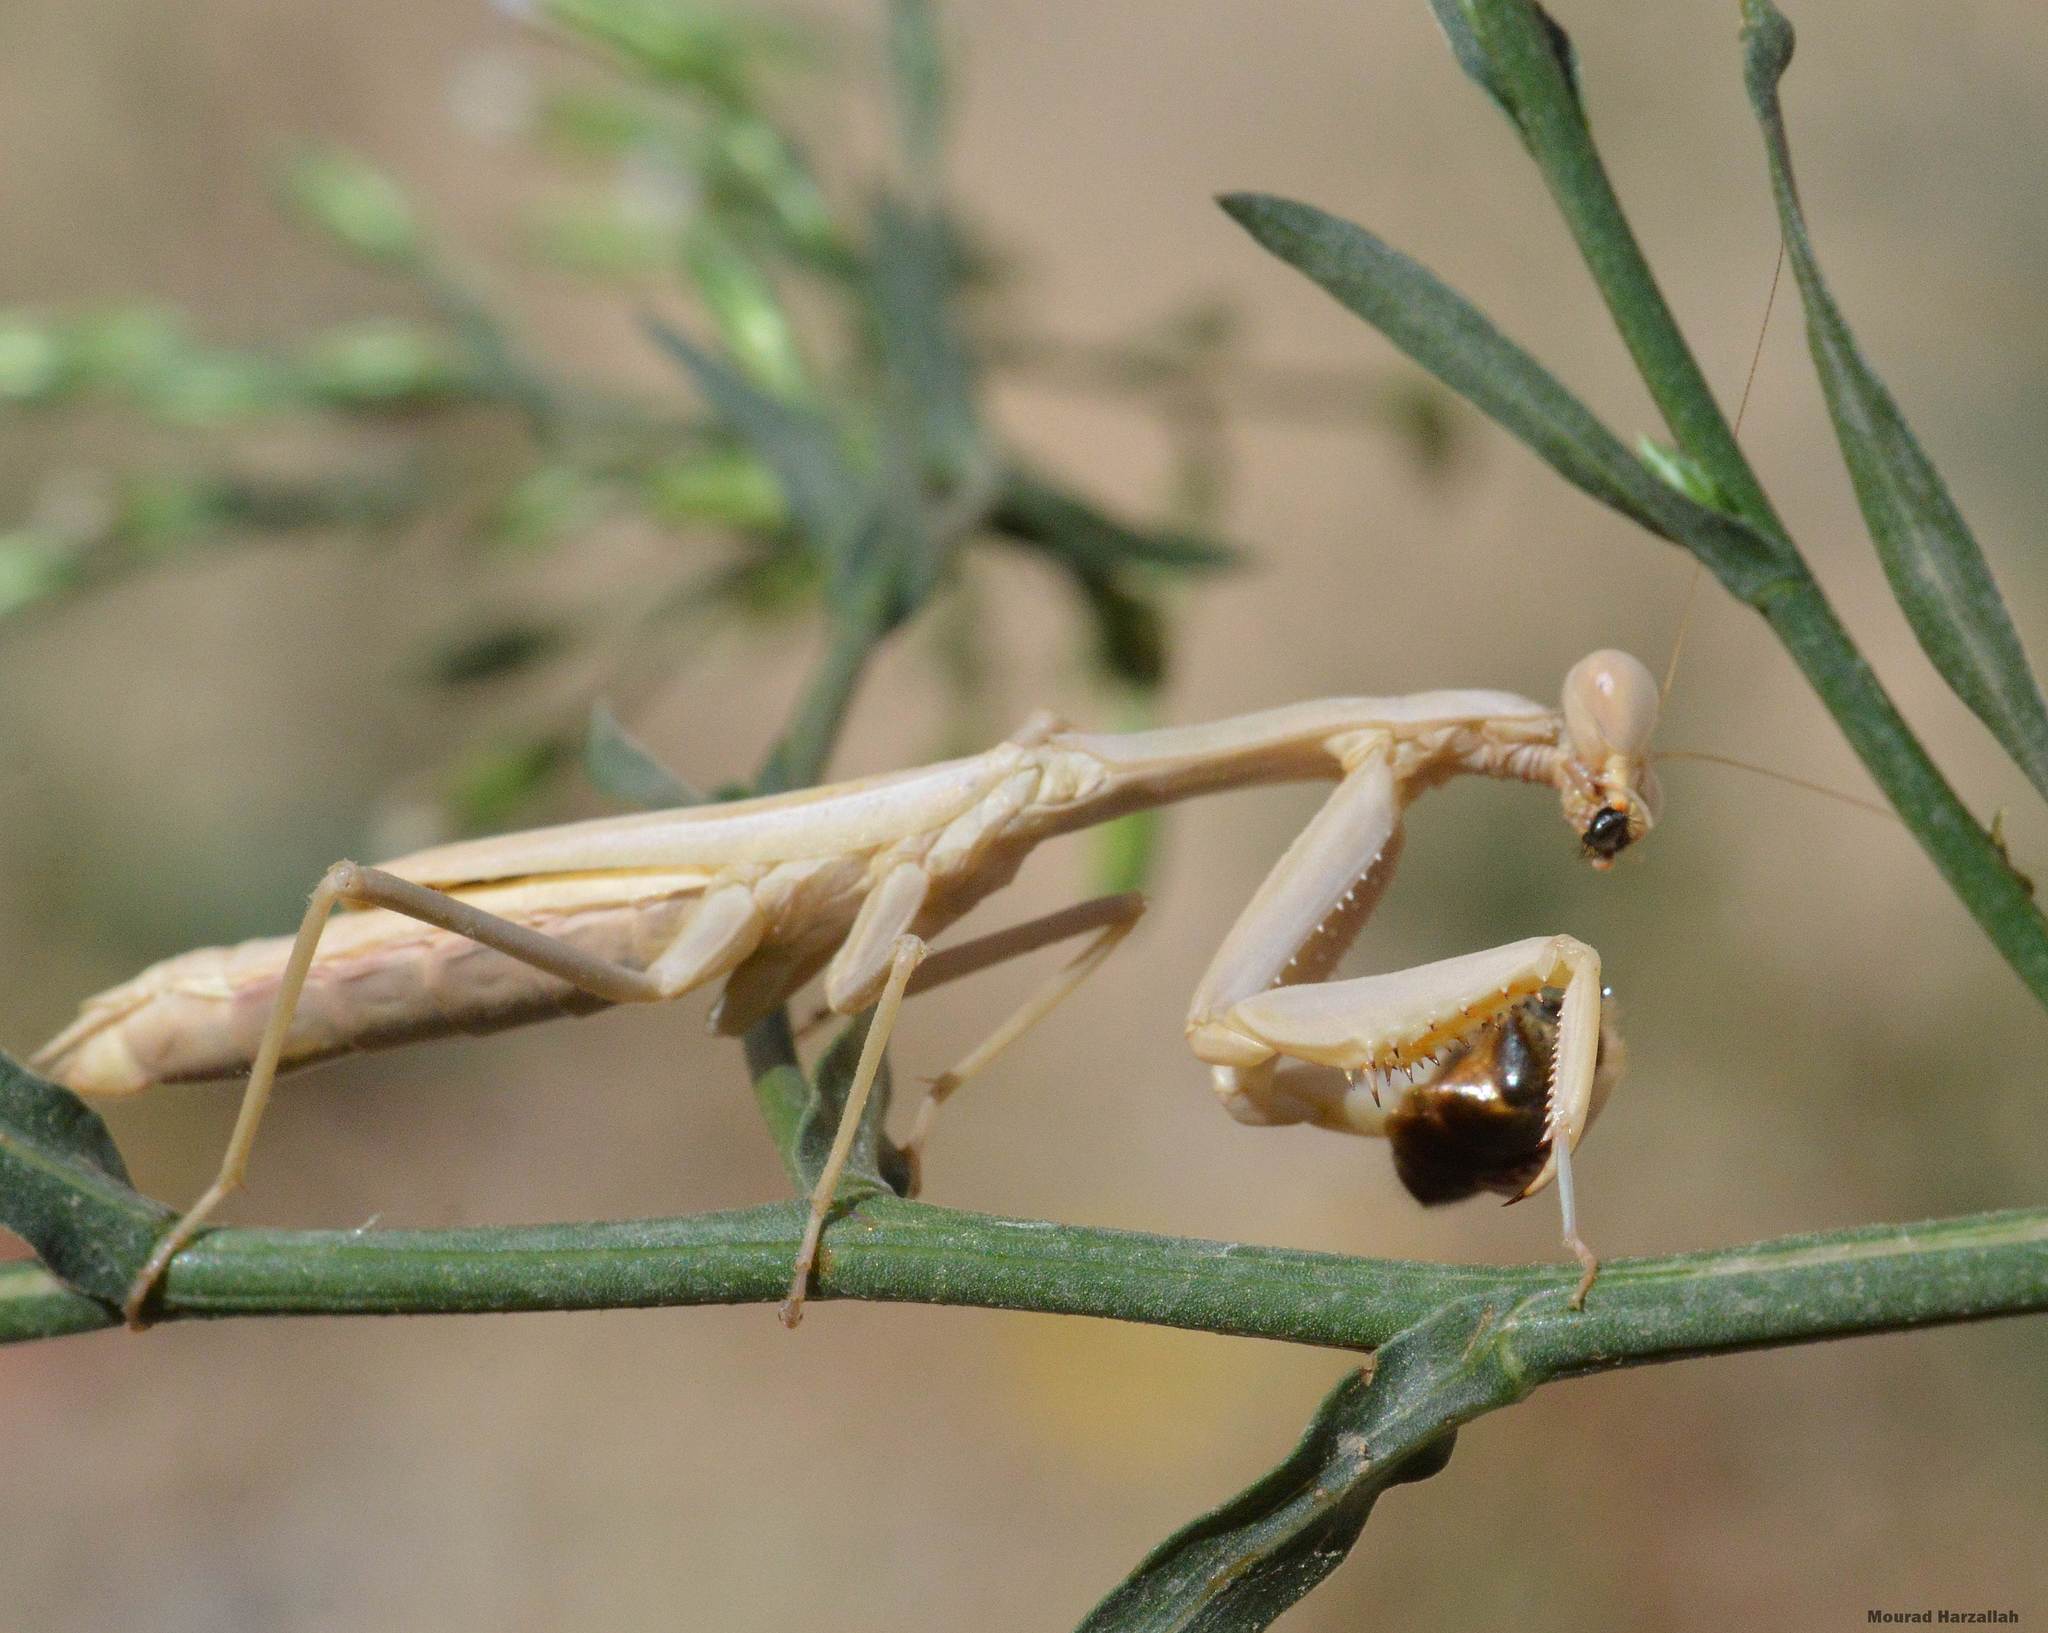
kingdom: Animalia
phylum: Arthropoda
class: Insecta
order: Mantodea
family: Eremiaphilidae
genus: Iris
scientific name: Iris oratoria
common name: Mediterranean mantis
